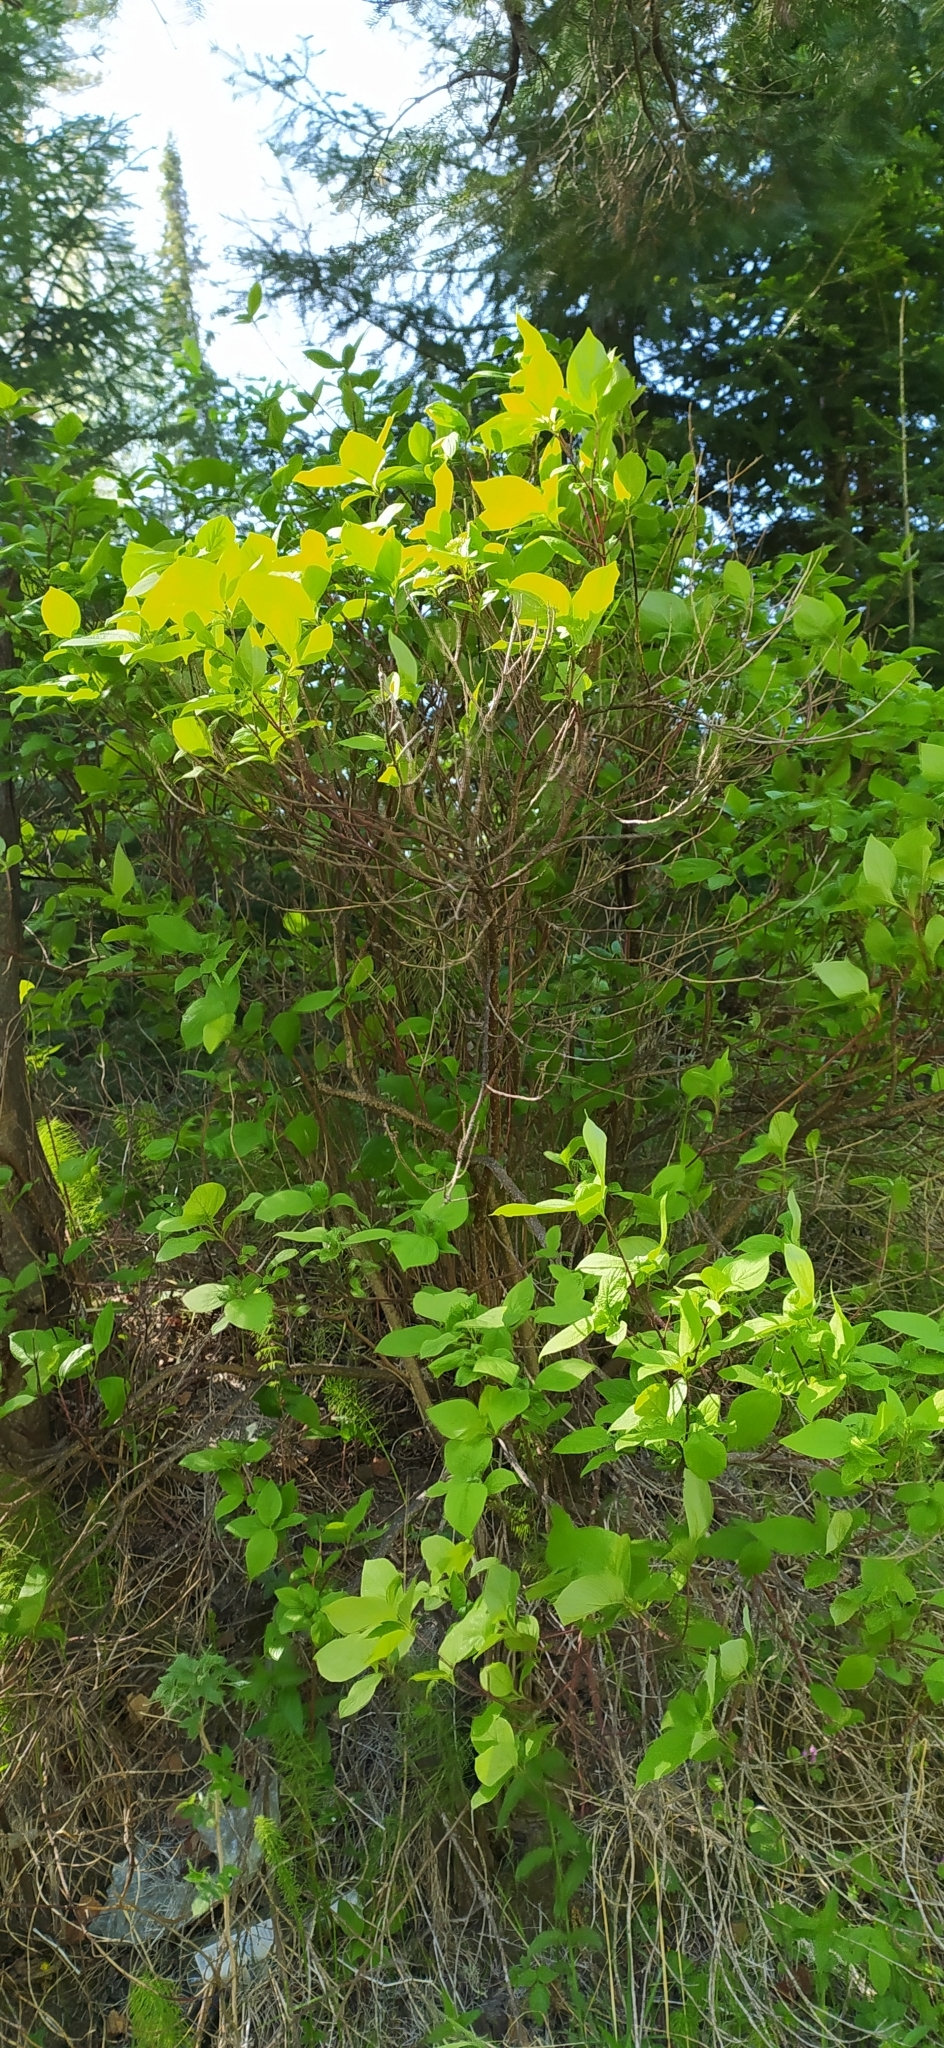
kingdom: Plantae
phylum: Tracheophyta
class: Magnoliopsida
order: Cornales
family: Cornaceae
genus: Cornus
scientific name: Cornus alba
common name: White dogwood
